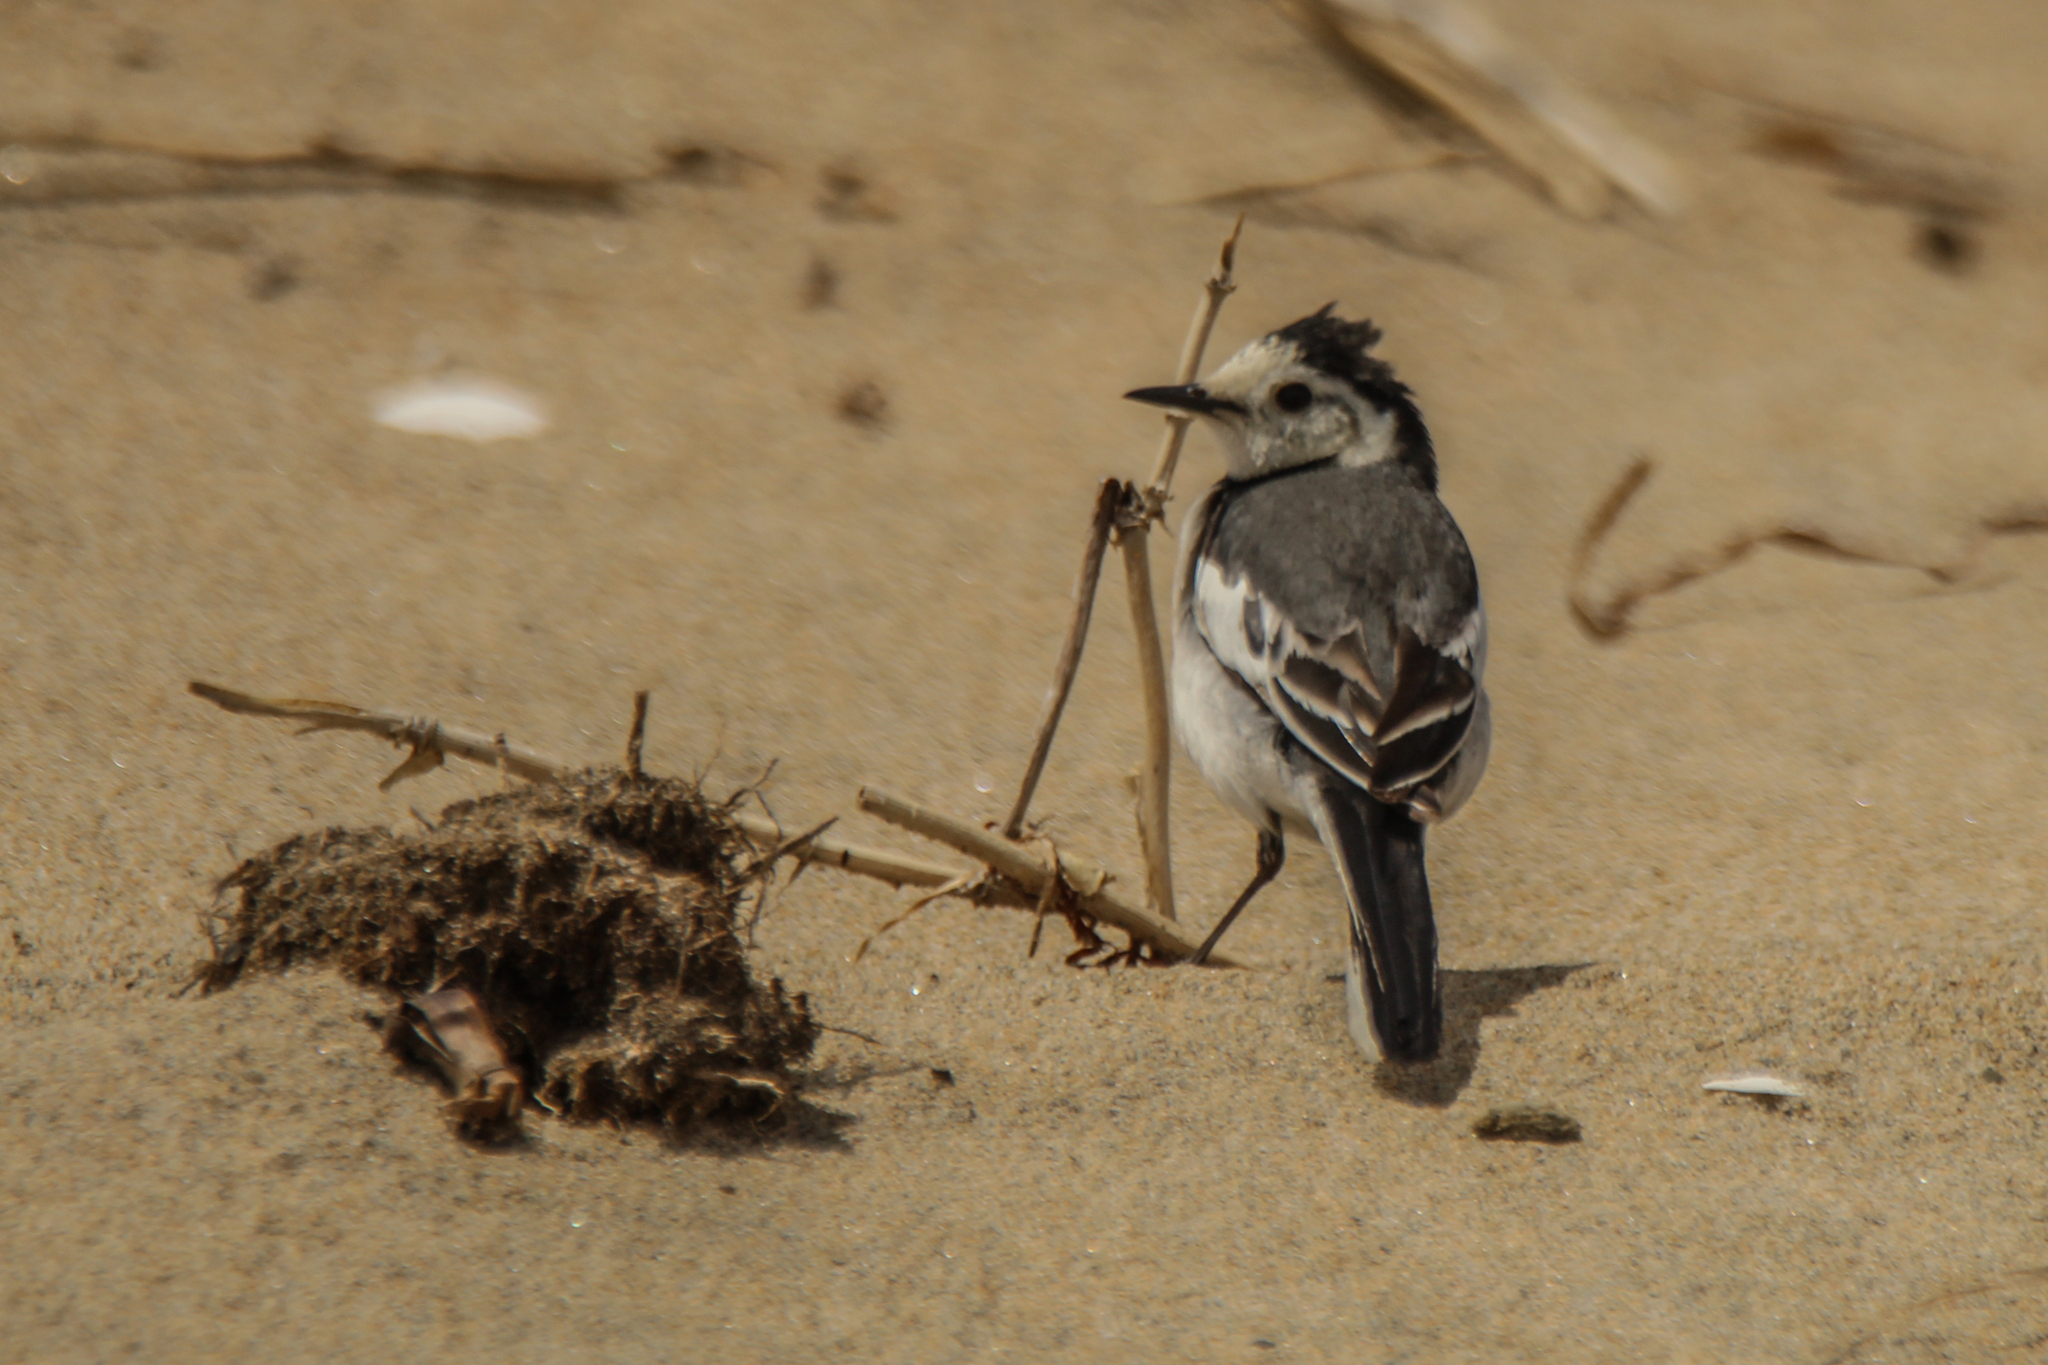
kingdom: Animalia
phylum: Chordata
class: Aves
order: Passeriformes
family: Motacillidae
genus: Motacilla
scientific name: Motacilla alba
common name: White wagtail
